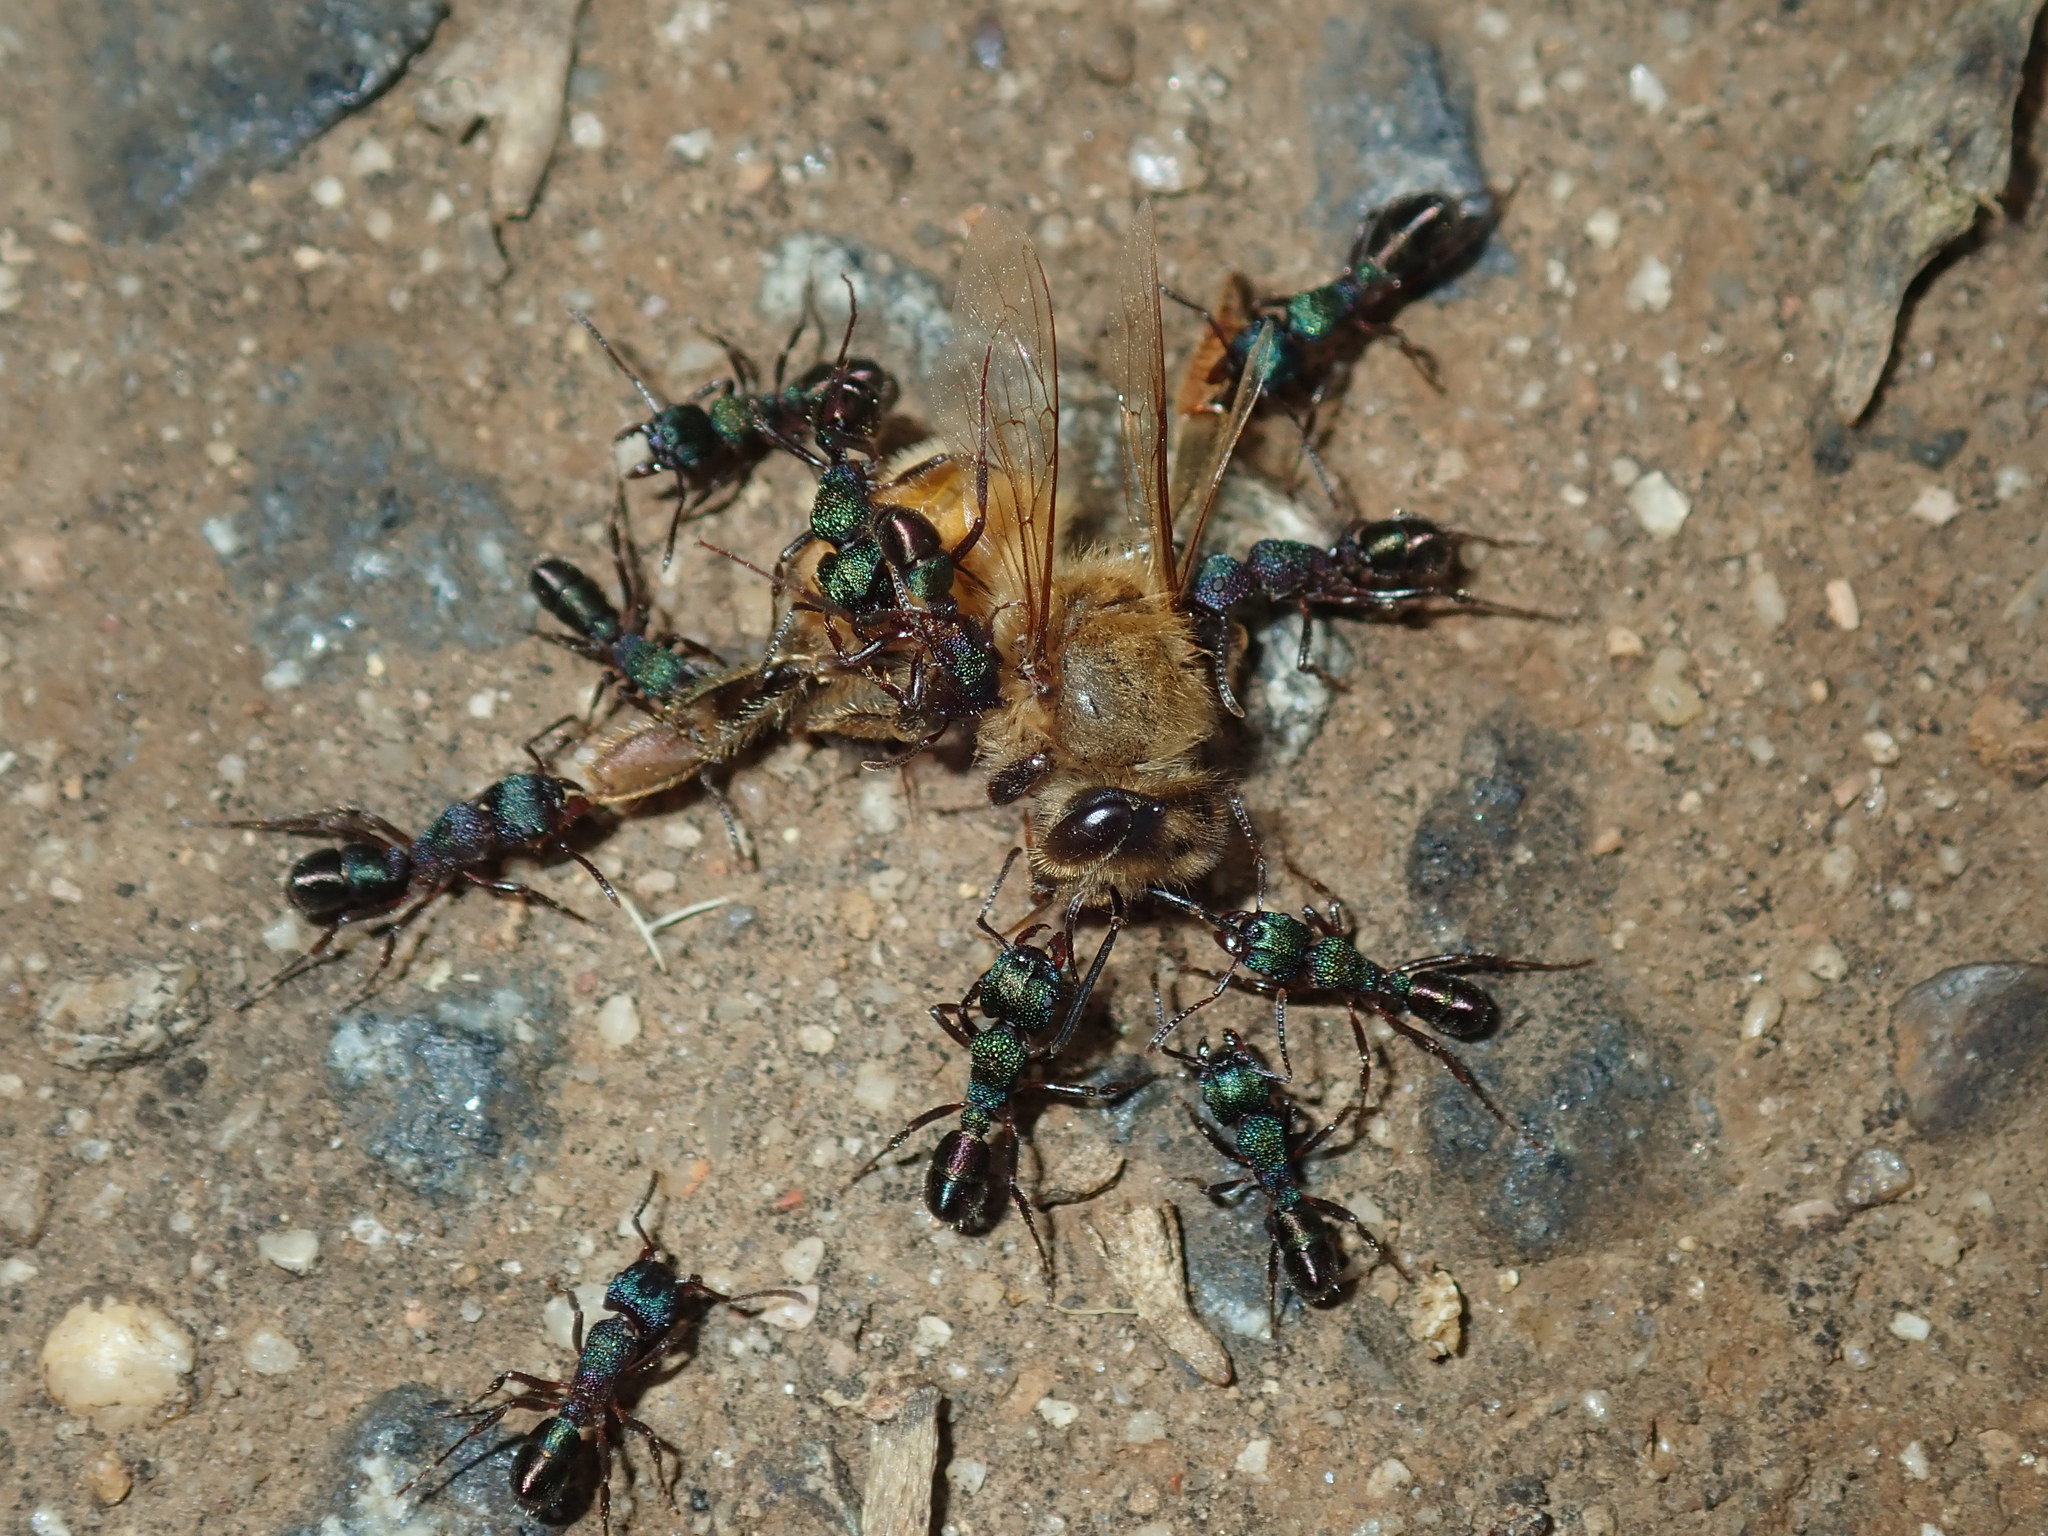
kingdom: Animalia
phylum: Arthropoda
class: Insecta
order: Hymenoptera
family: Formicidae
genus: Rhytidoponera
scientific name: Rhytidoponera metallica
